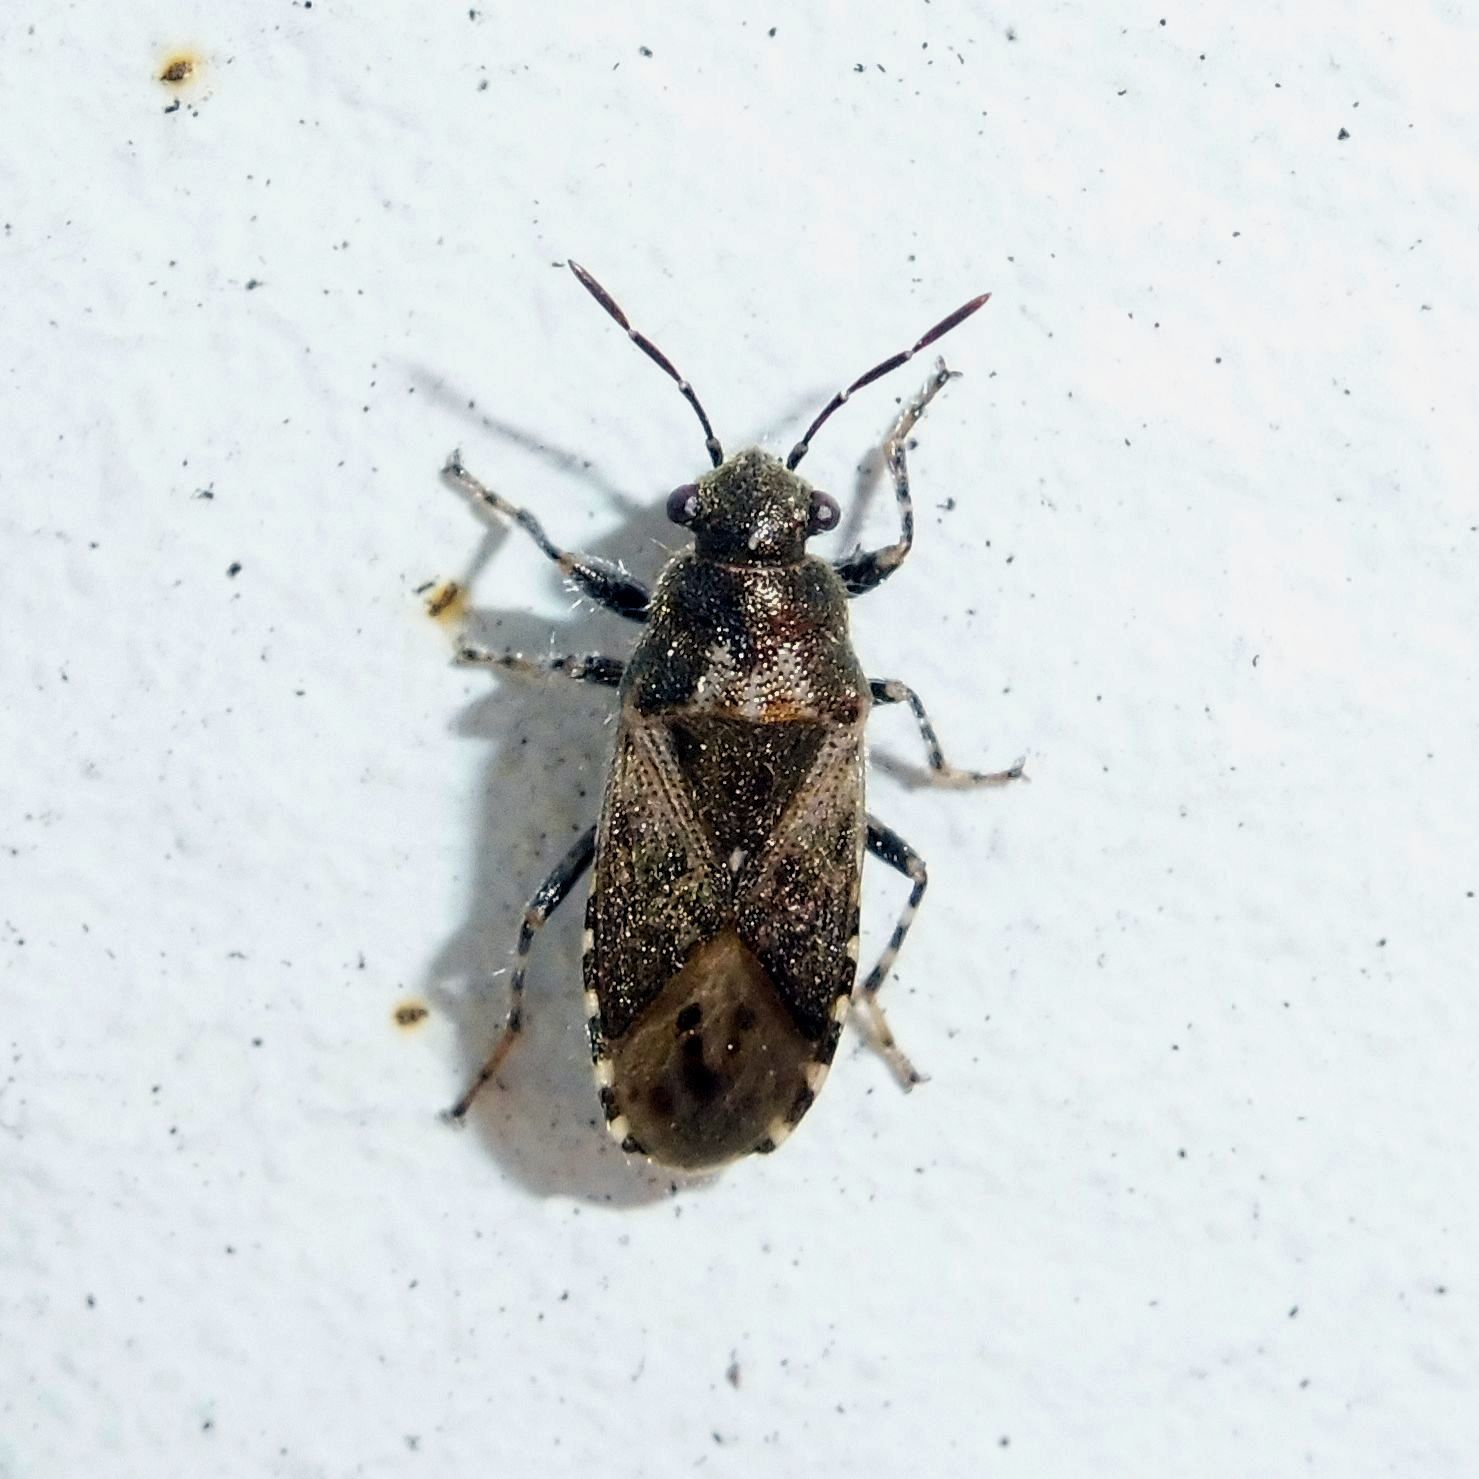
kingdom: Animalia
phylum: Arthropoda
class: Insecta
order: Hemiptera
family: Heterogastridae
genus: Heterogaster
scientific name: Heterogaster urticae
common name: Seed bug
